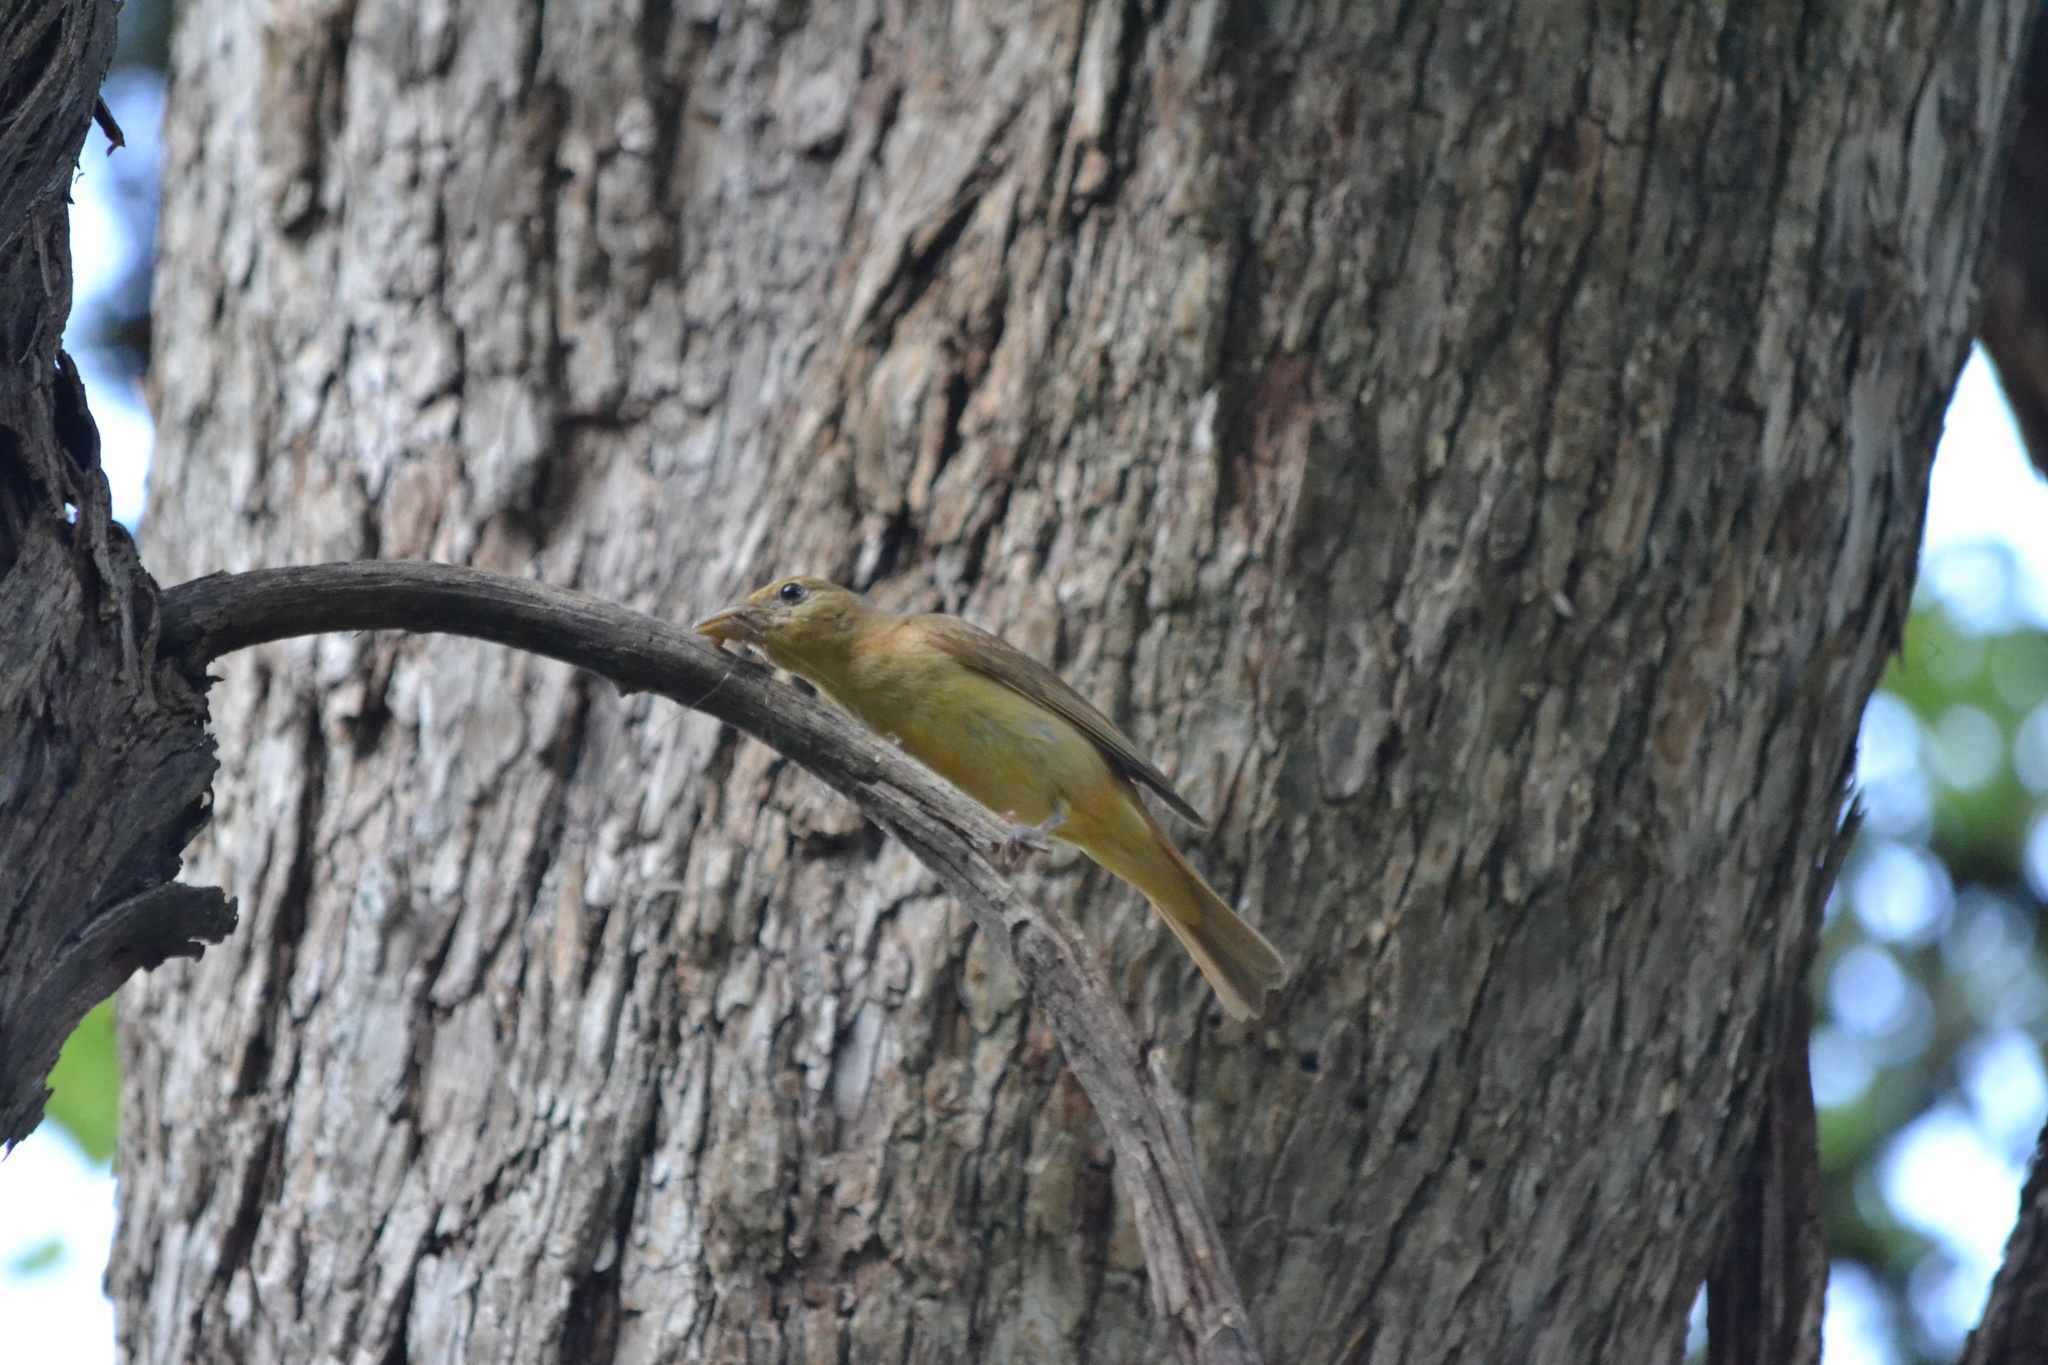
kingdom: Animalia
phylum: Chordata
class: Aves
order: Passeriformes
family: Cardinalidae
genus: Piranga
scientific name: Piranga rubra
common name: Summer tanager
